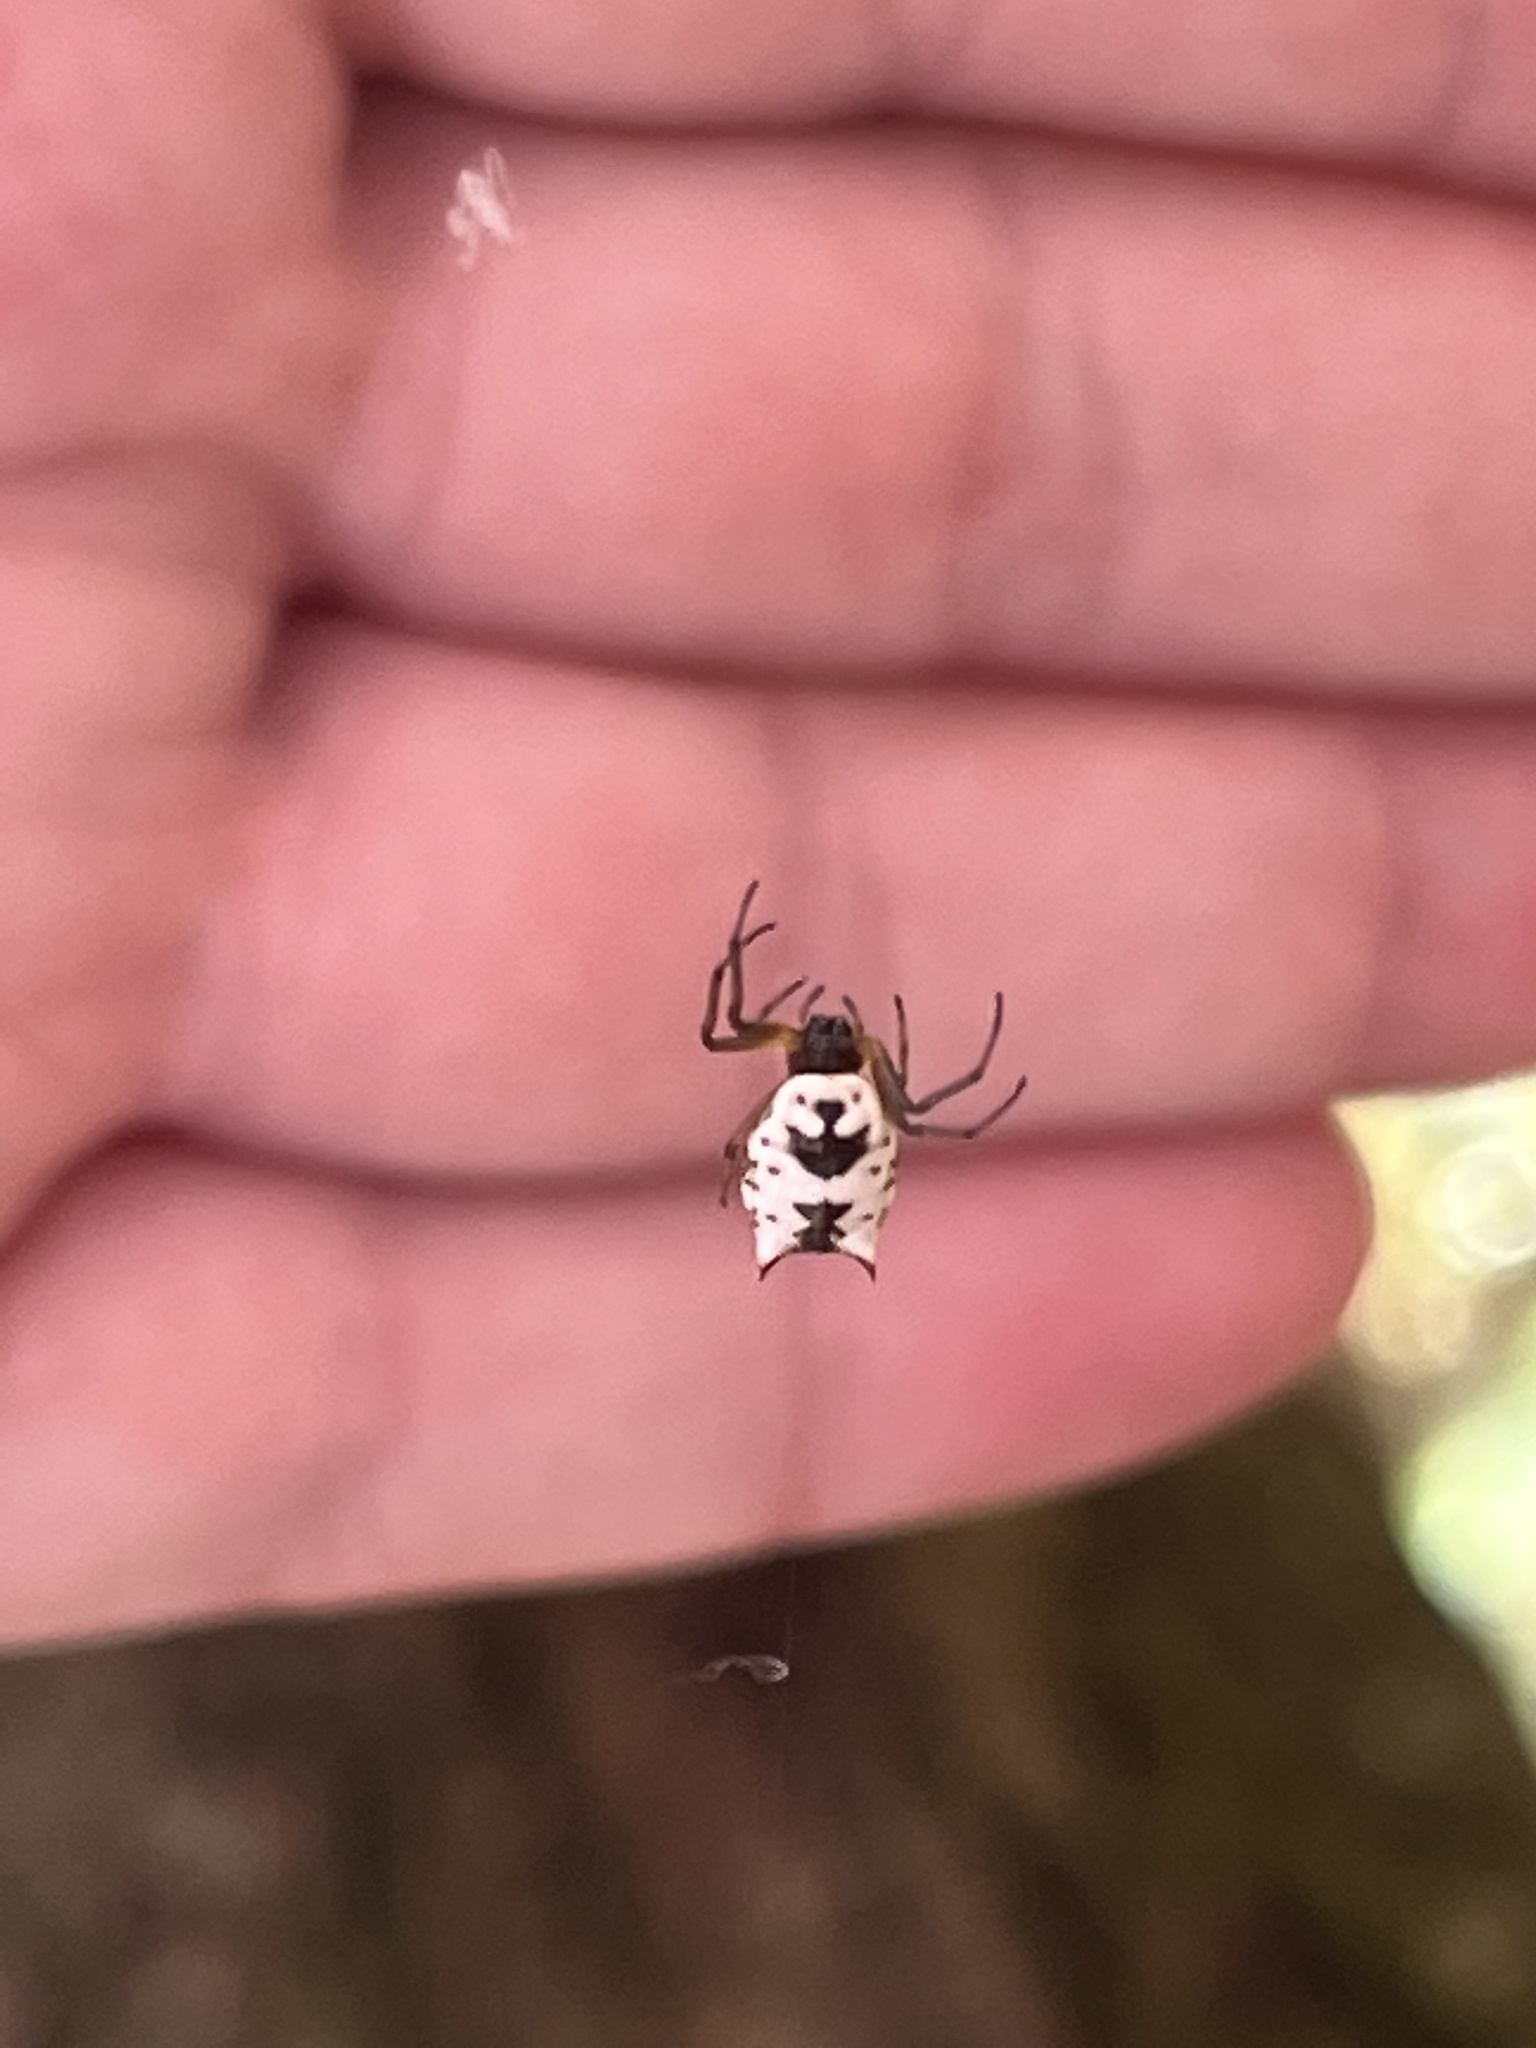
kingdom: Animalia
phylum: Arthropoda
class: Arachnida
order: Araneae
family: Araneidae
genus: Micrathena
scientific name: Micrathena mitrata
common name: Orb weavers
